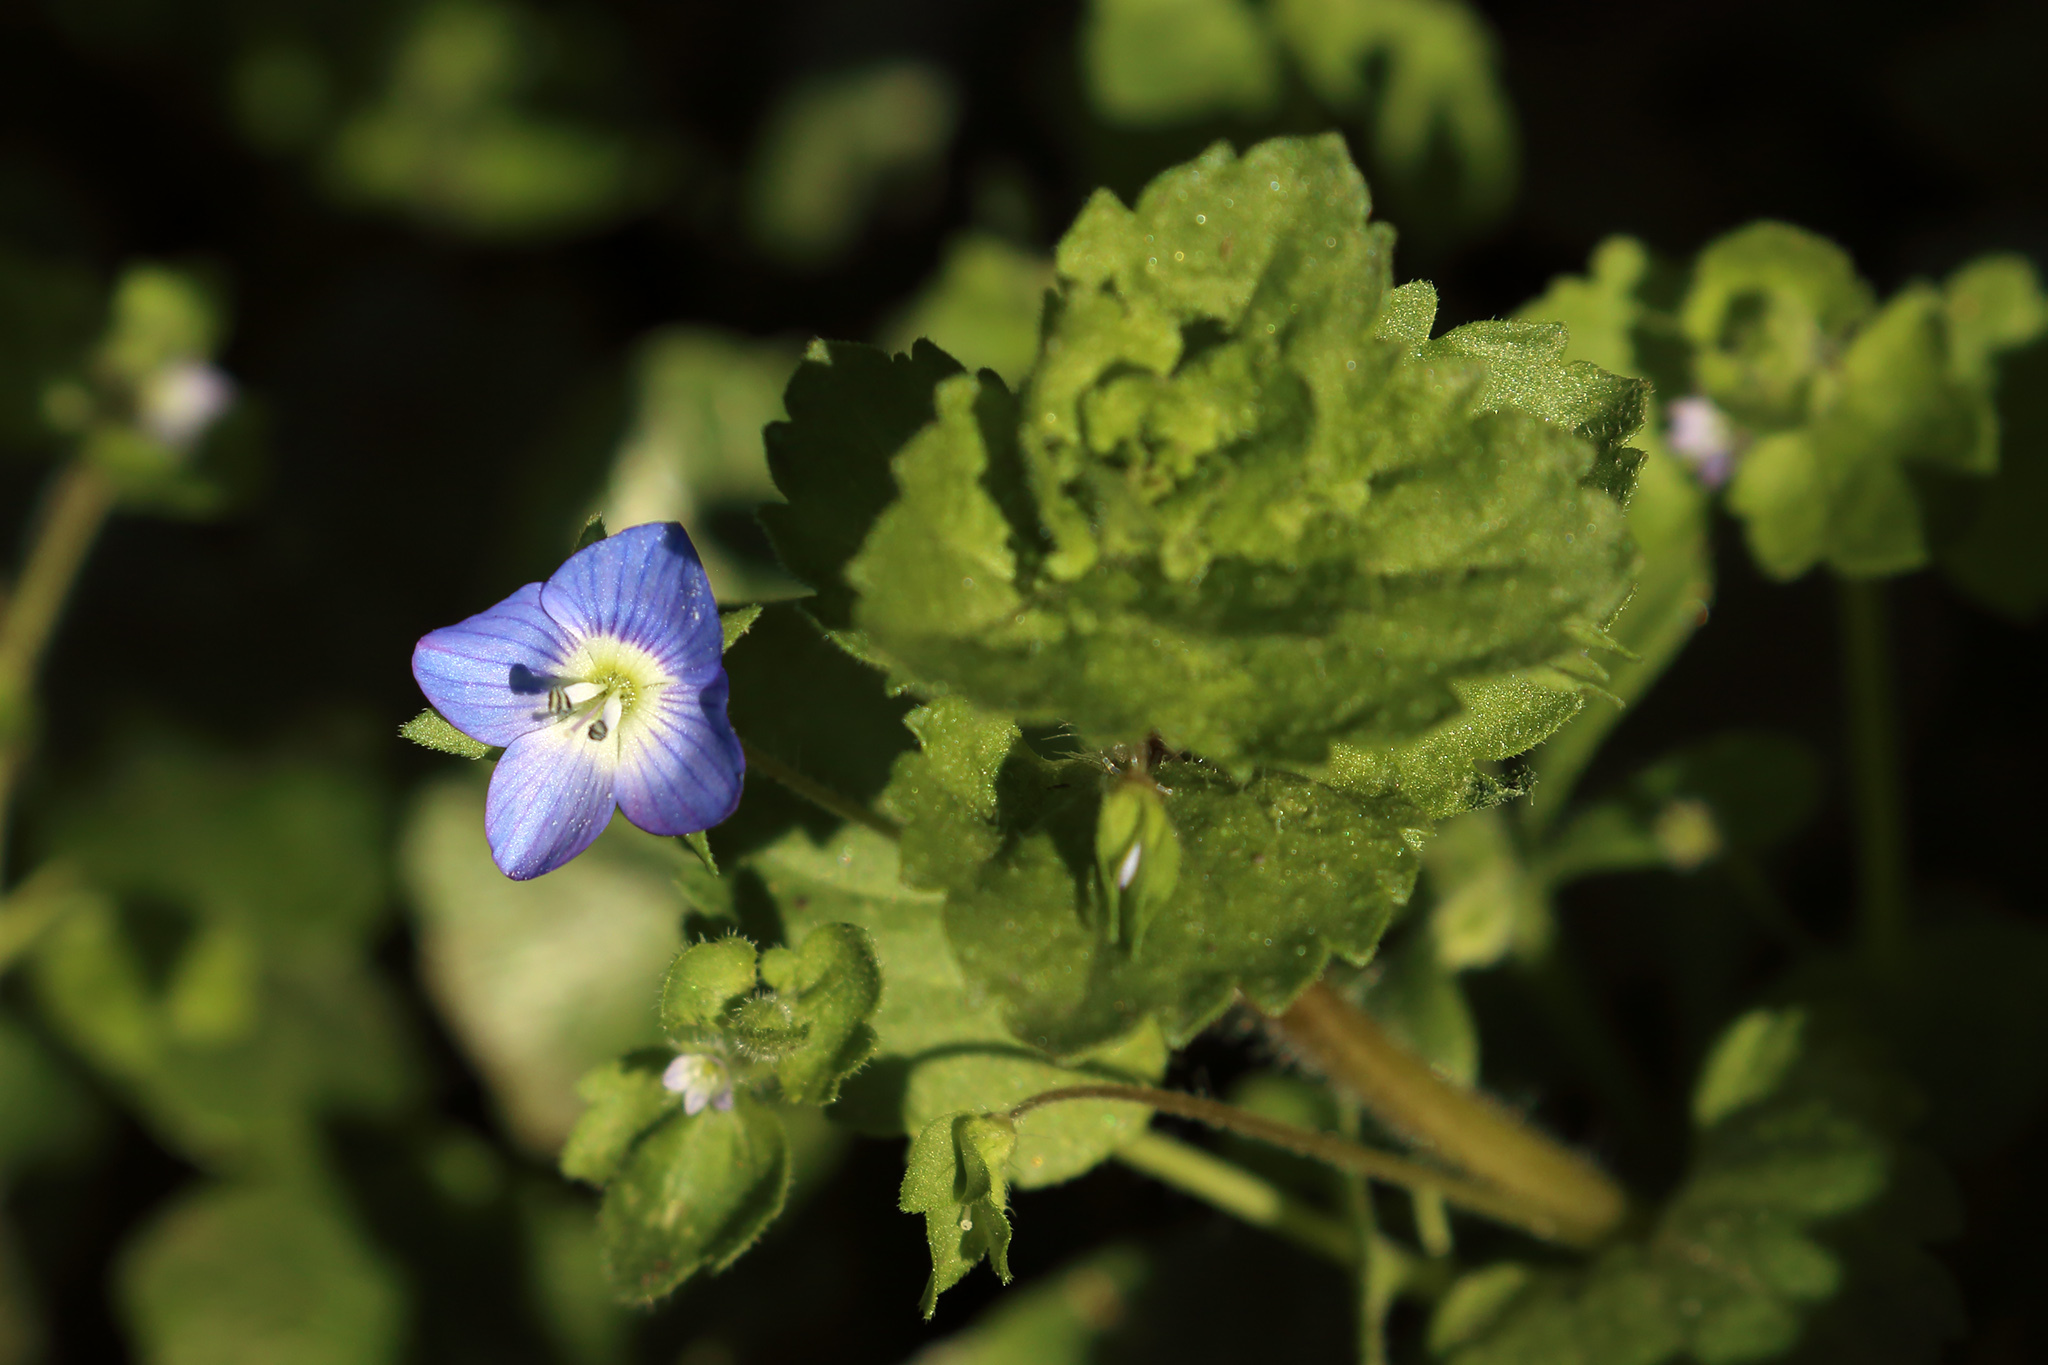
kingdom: Plantae
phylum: Tracheophyta
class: Magnoliopsida
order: Lamiales
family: Plantaginaceae
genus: Veronica
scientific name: Veronica persica
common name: Common field-speedwell
